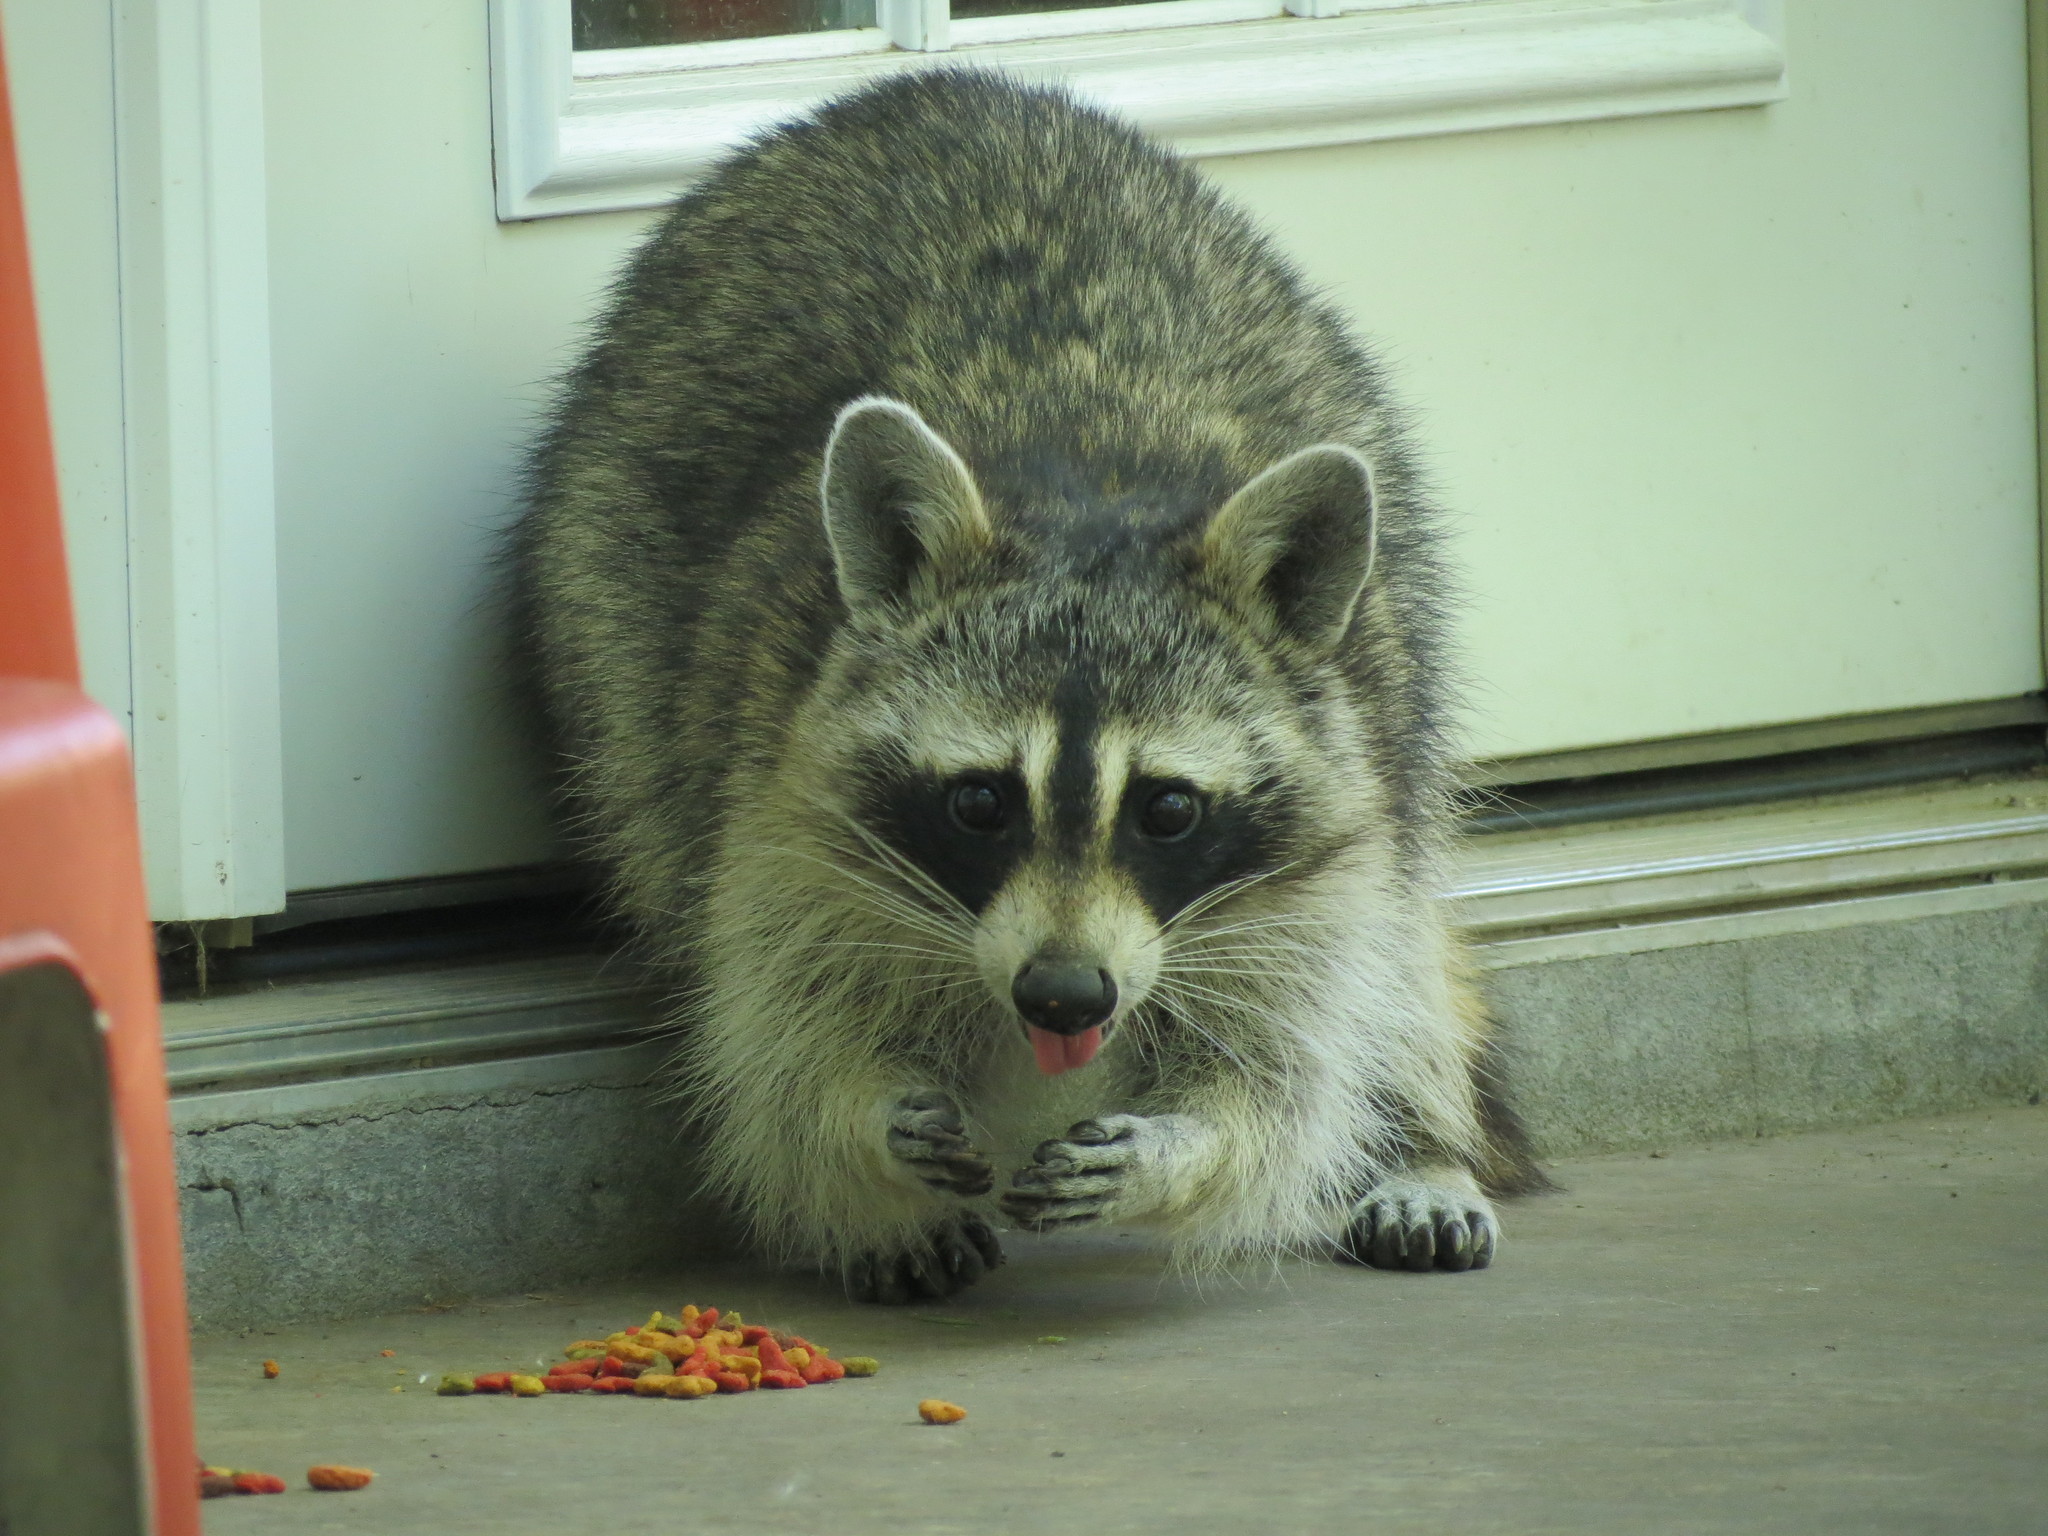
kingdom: Animalia
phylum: Chordata
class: Mammalia
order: Carnivora
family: Procyonidae
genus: Procyon
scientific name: Procyon lotor
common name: Raccoon
